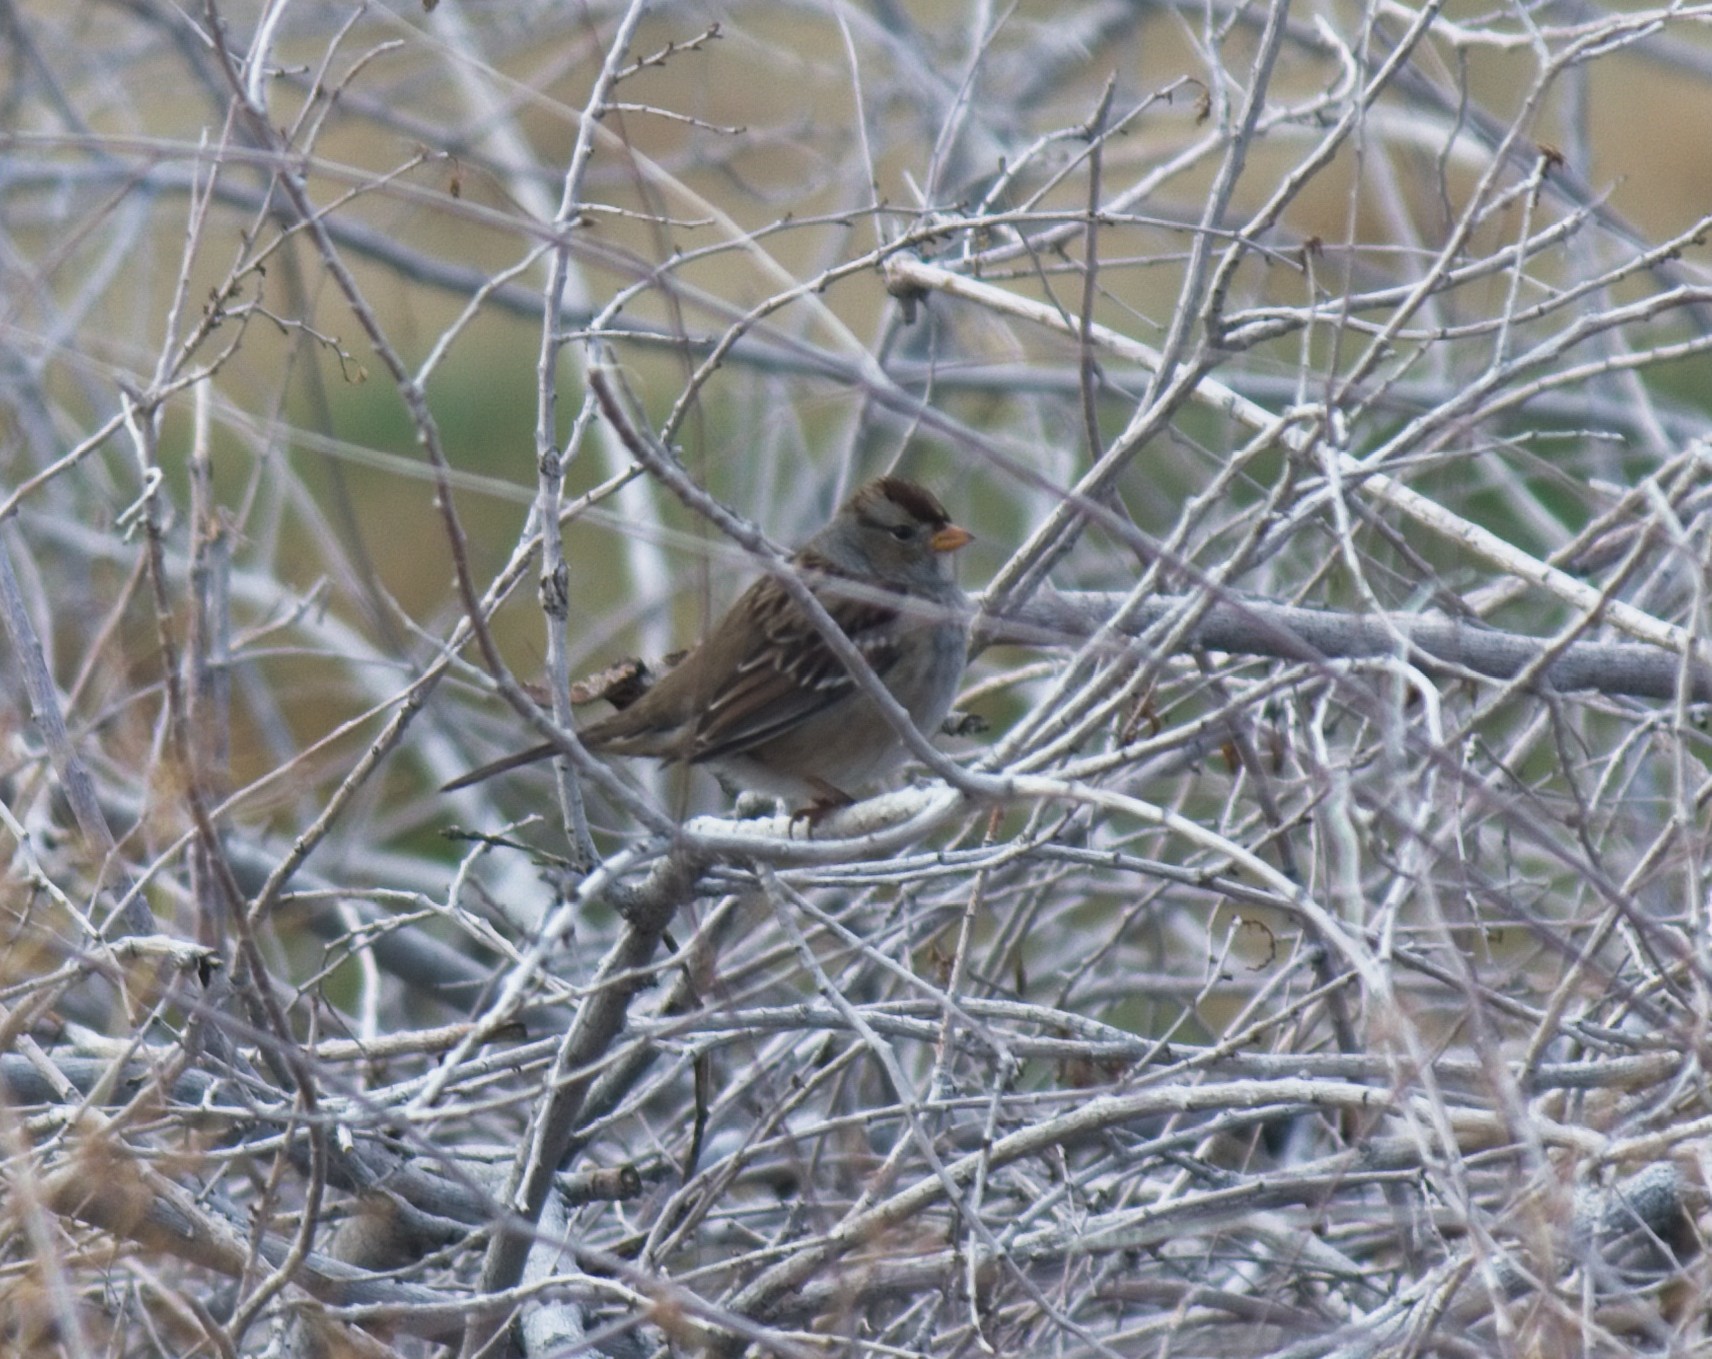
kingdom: Animalia
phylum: Chordata
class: Aves
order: Passeriformes
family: Passerellidae
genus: Zonotrichia
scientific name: Zonotrichia leucophrys
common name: White-crowned sparrow
